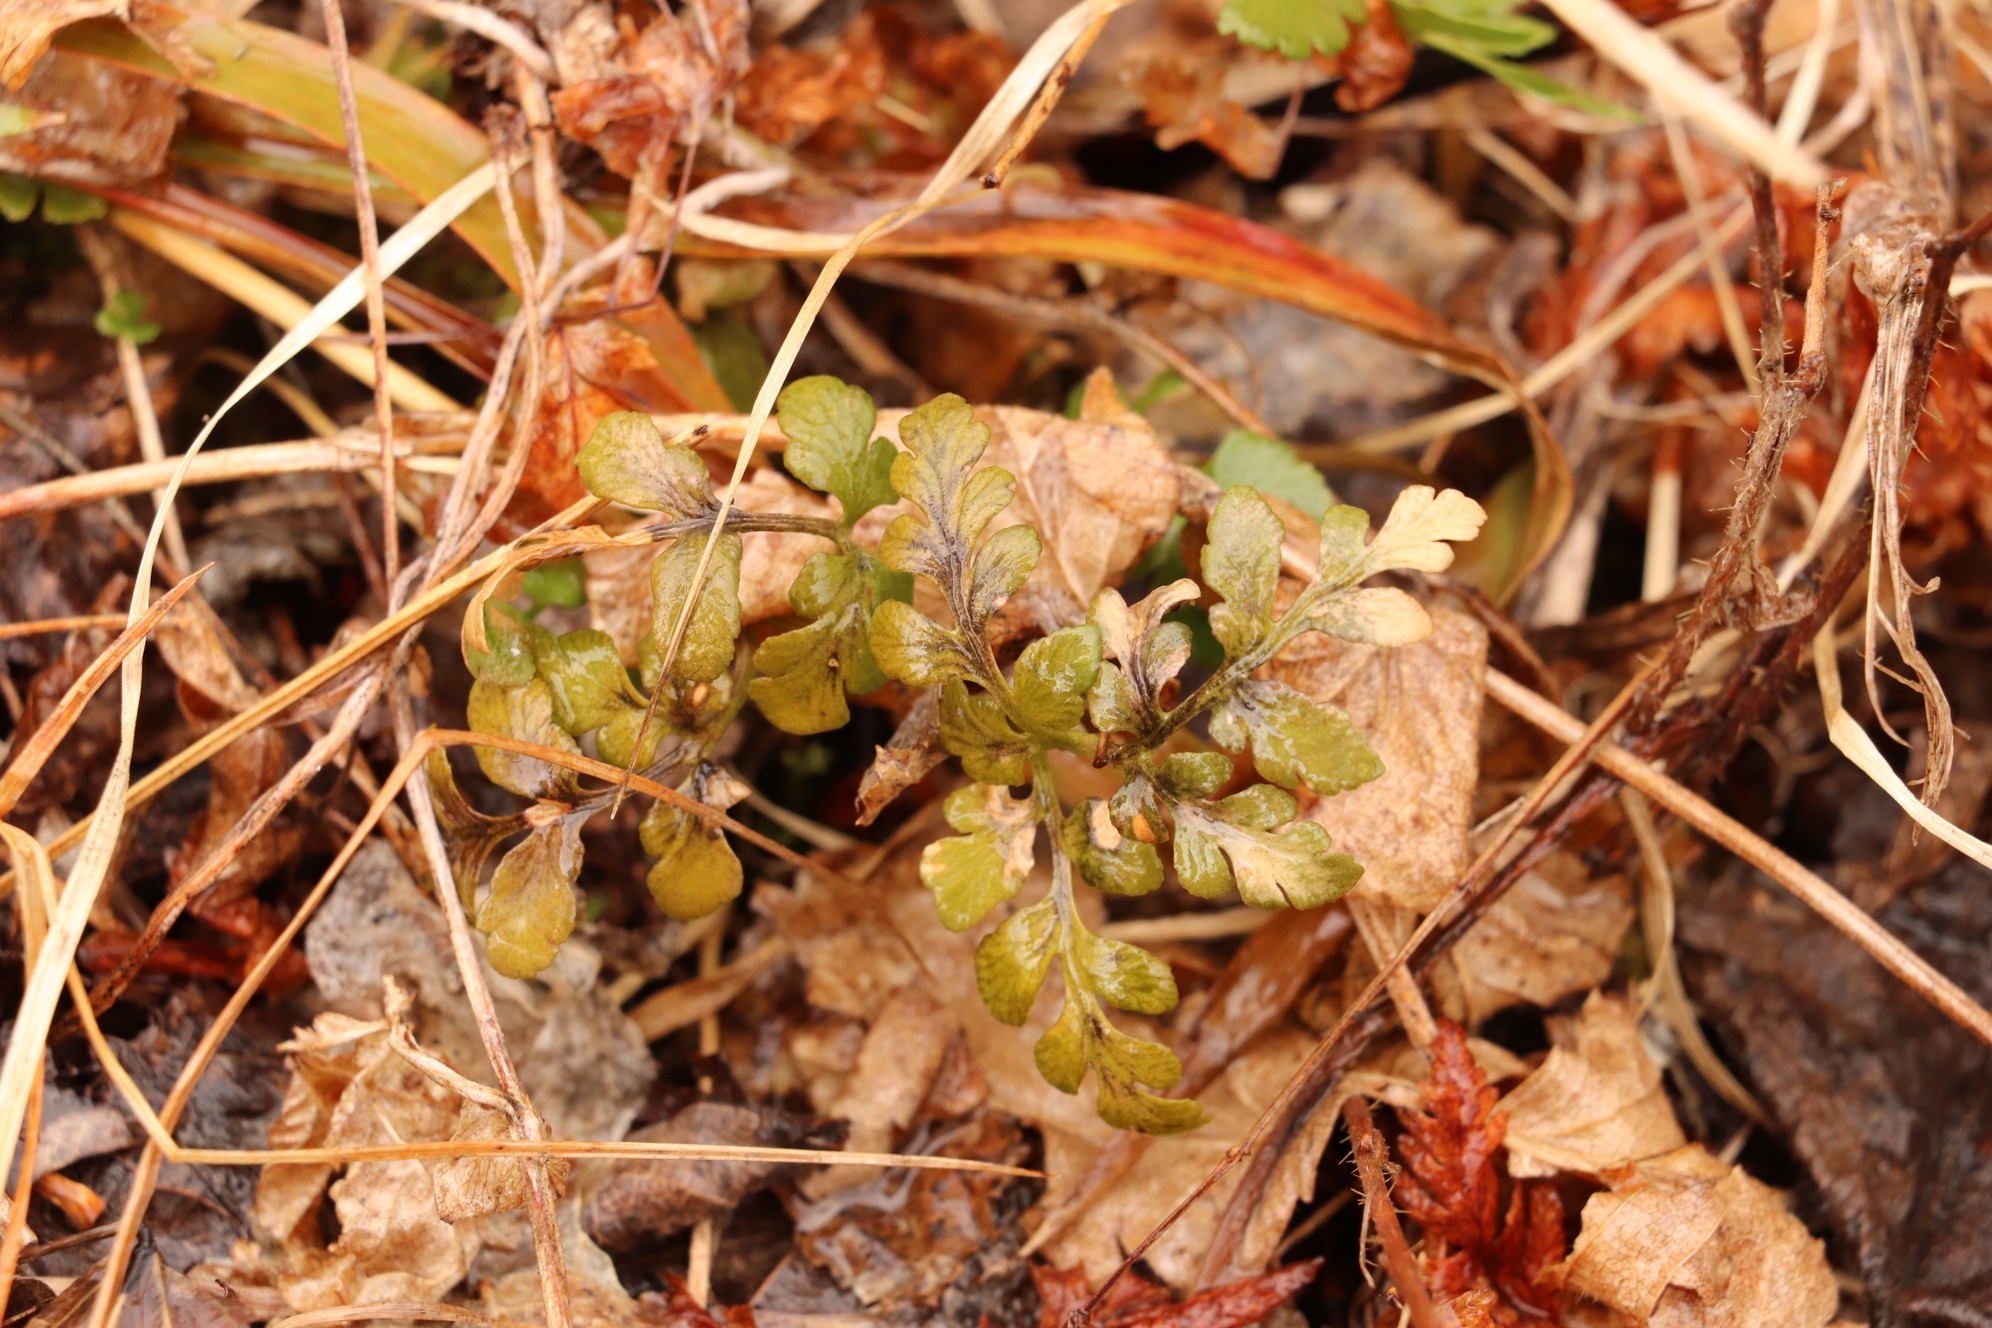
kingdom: Plantae
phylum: Tracheophyta
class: Polypodiopsida
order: Ophioglossales
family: Ophioglossaceae
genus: Sceptridium
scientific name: Sceptridium multifidum
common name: Leathery grape fern
